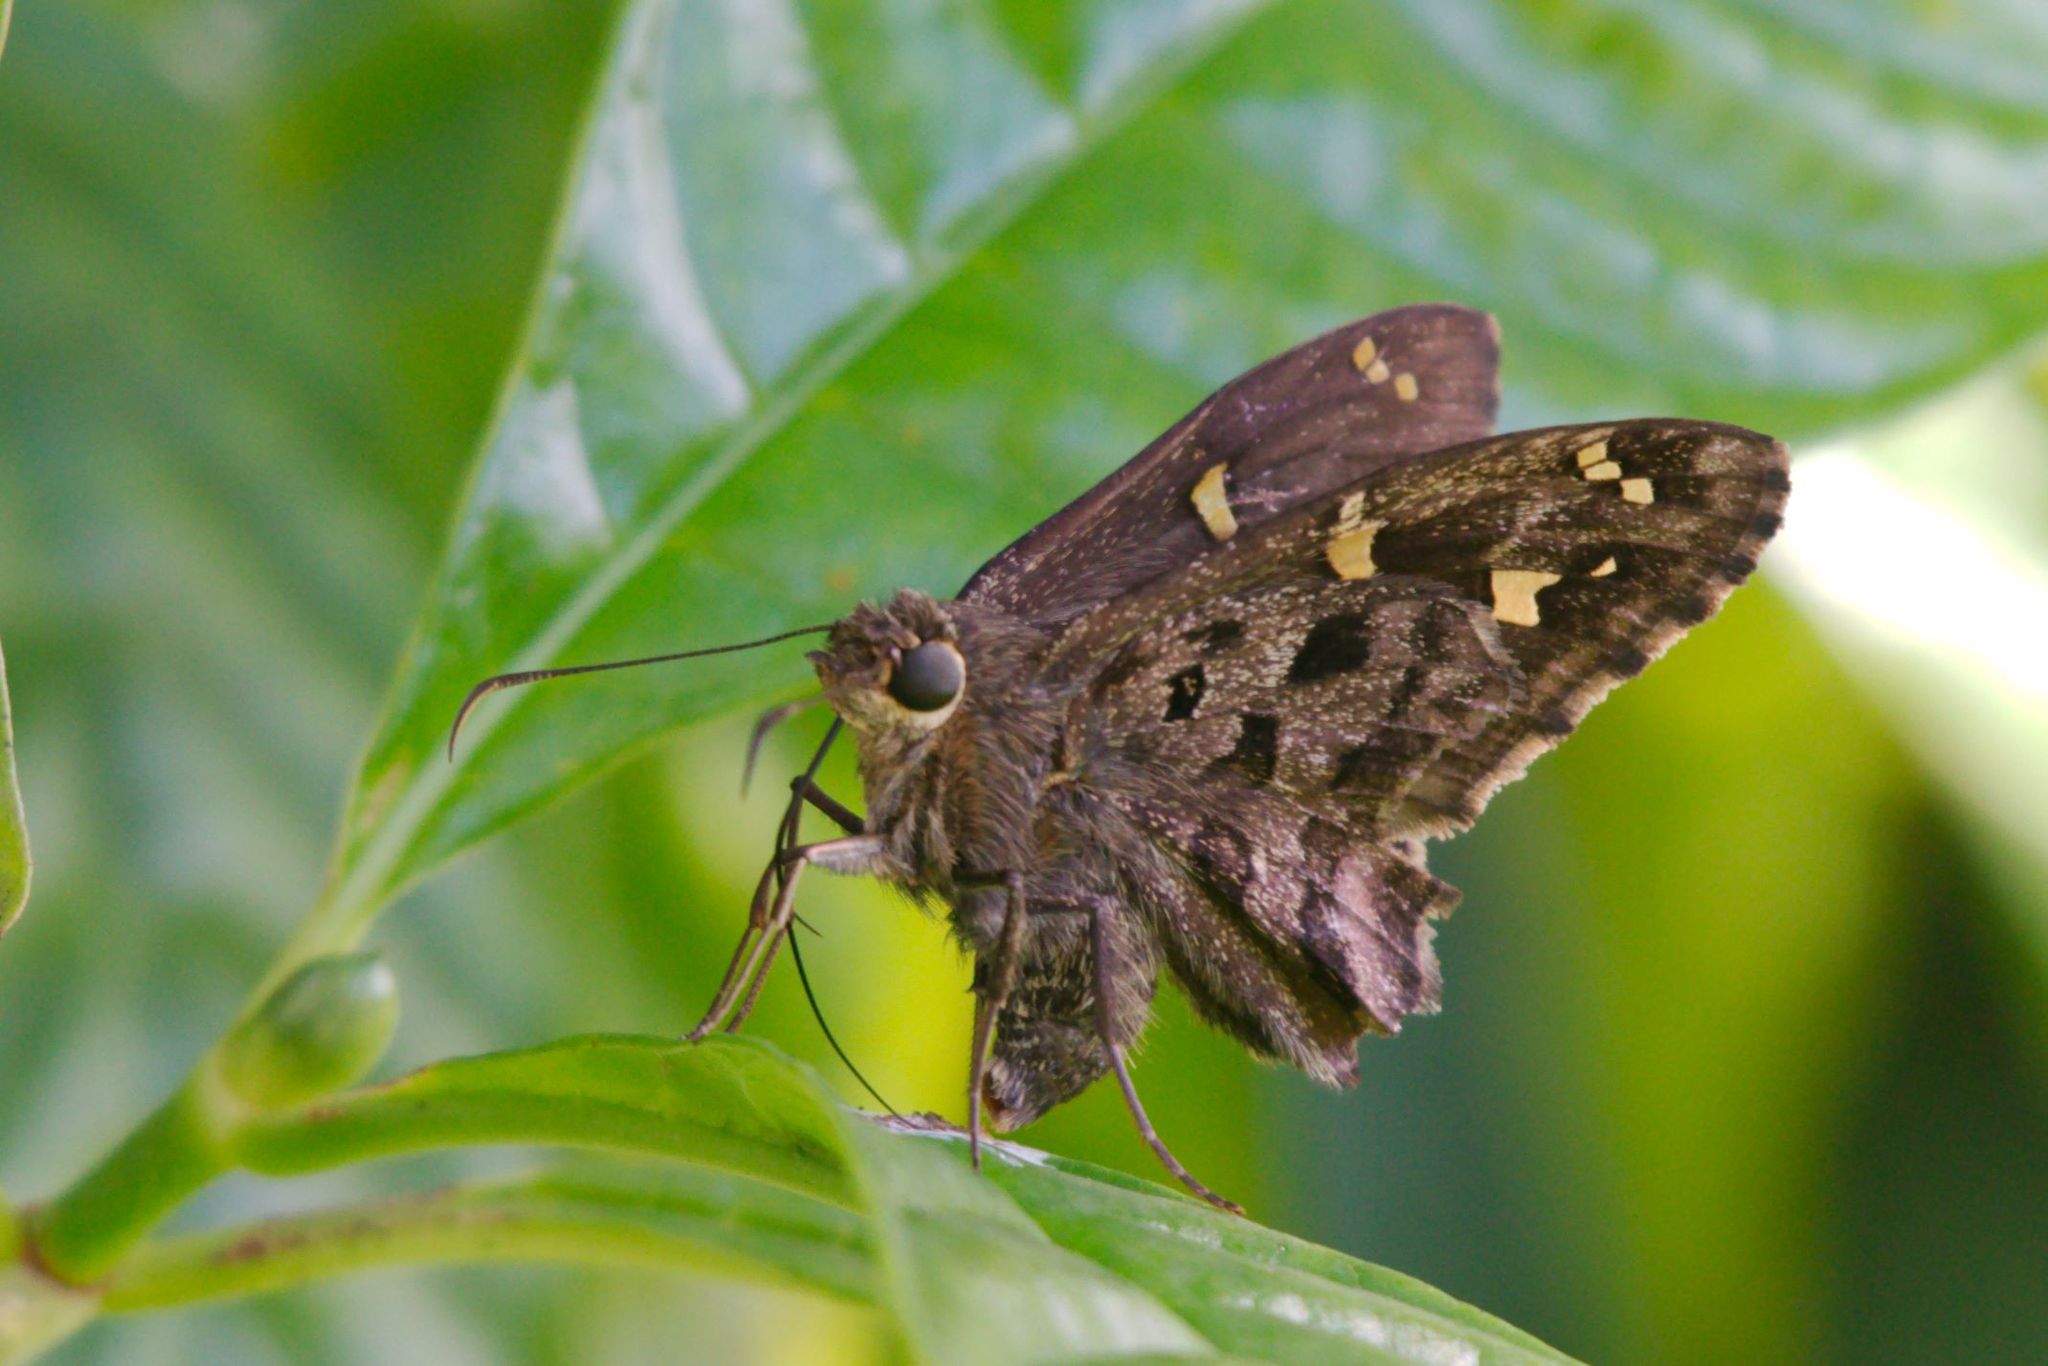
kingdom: Animalia
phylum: Arthropoda
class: Insecta
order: Lepidoptera
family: Hesperiidae
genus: Thorybes
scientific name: Thorybes
